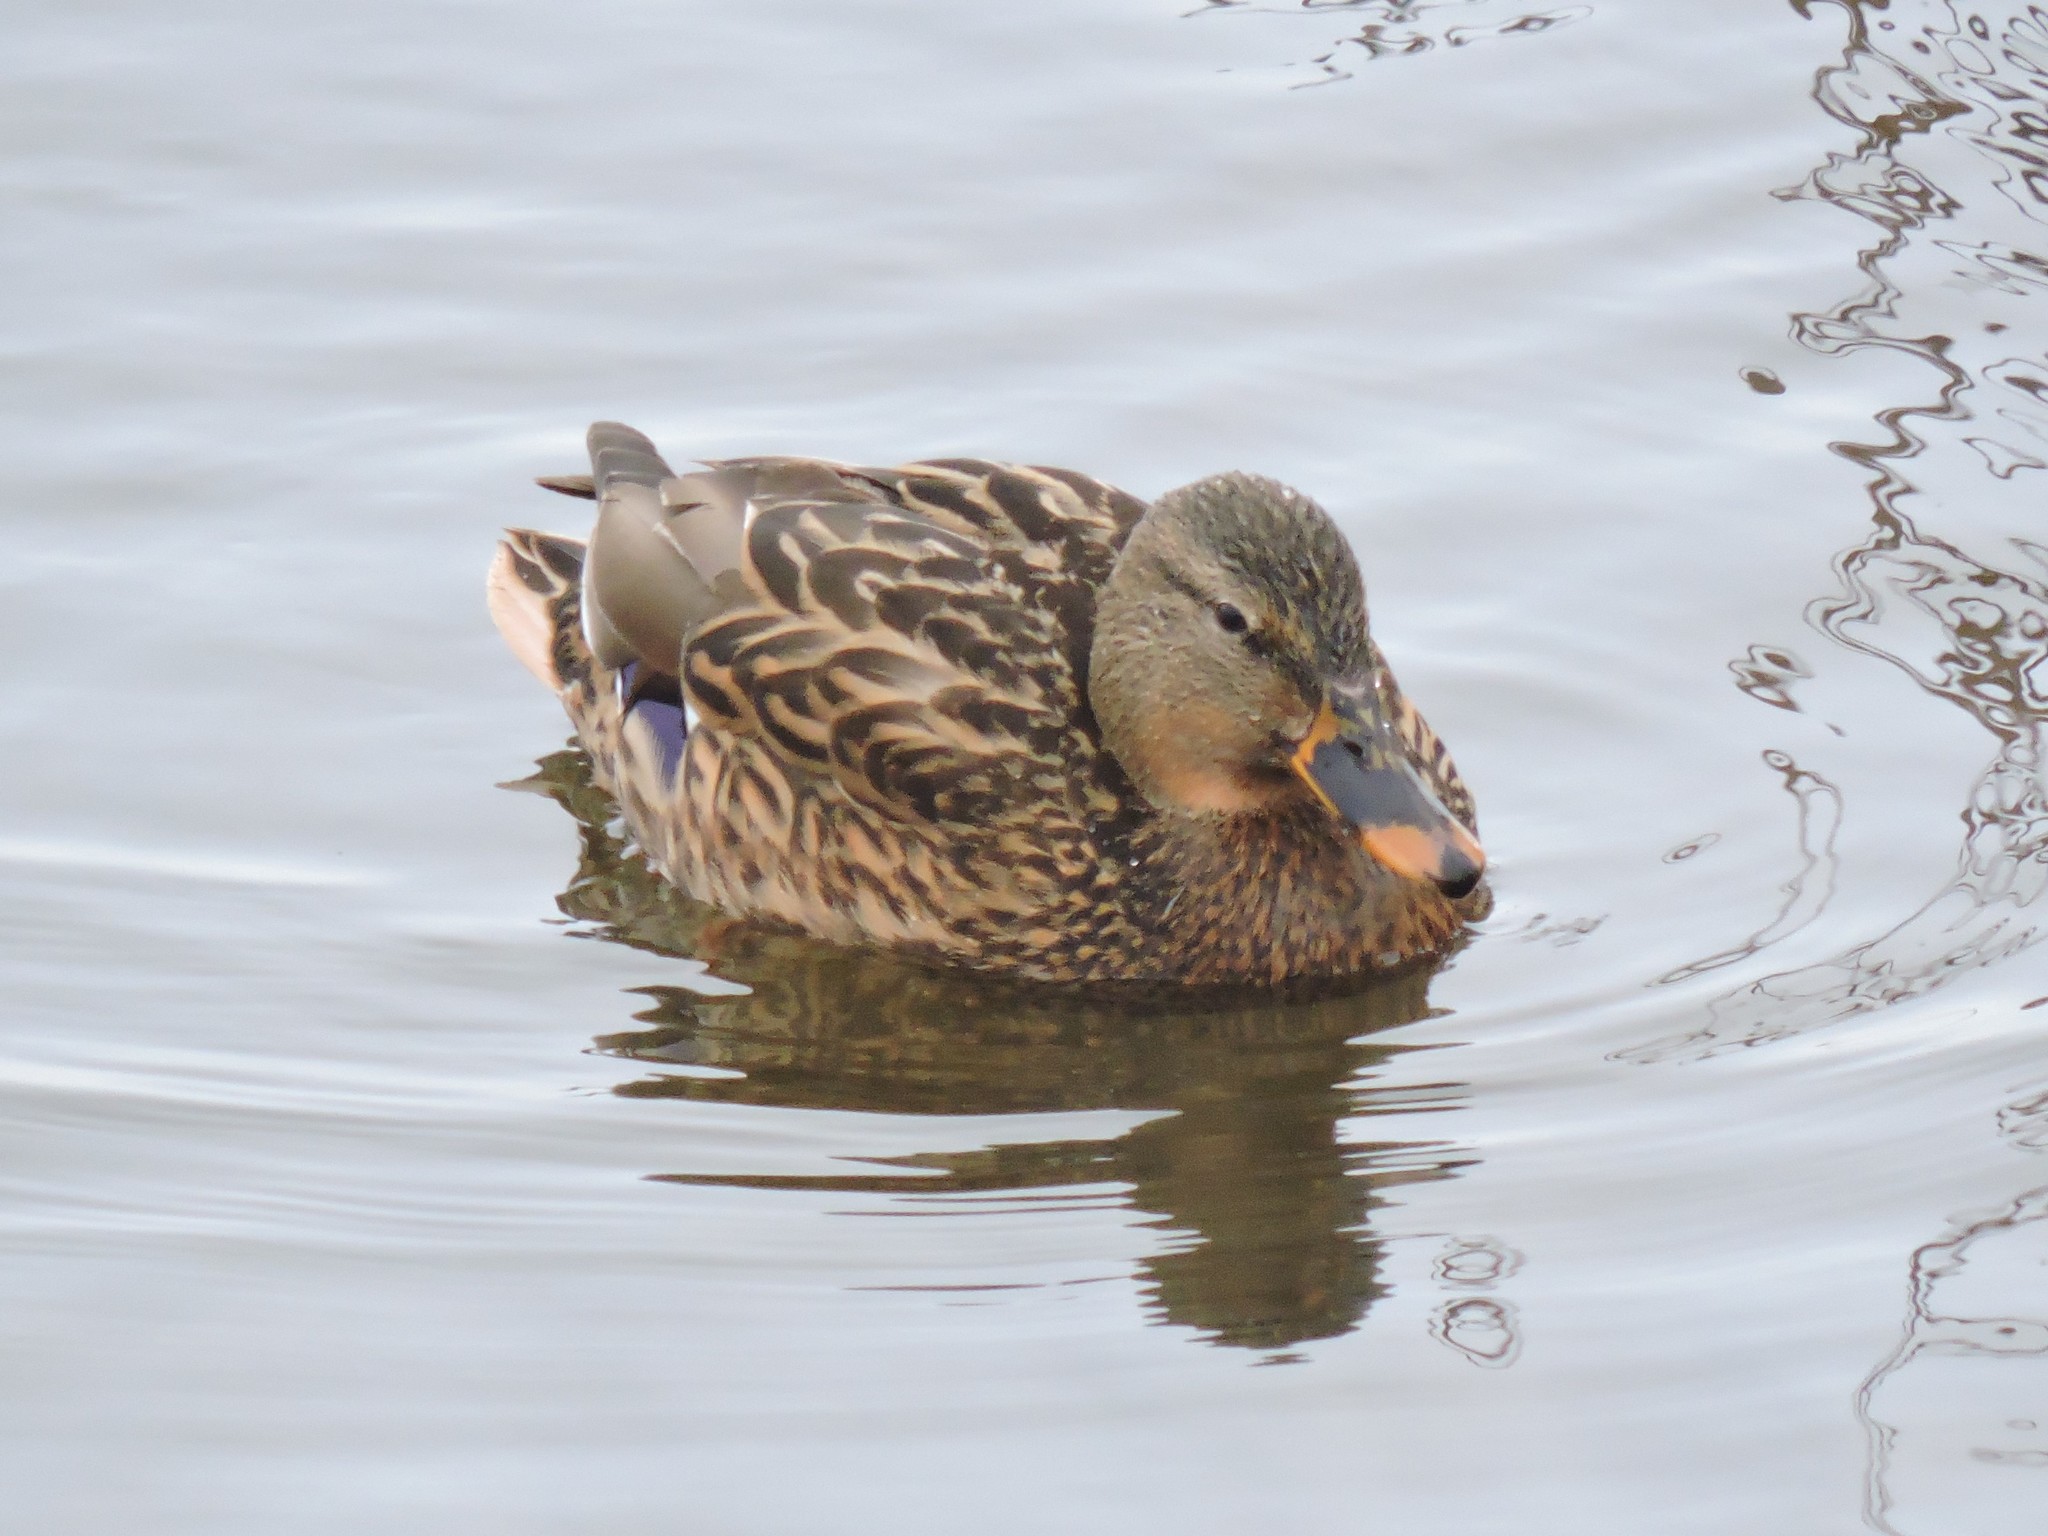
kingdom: Animalia
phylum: Chordata
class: Aves
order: Anseriformes
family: Anatidae
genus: Anas
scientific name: Anas platyrhynchos
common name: Mallard
